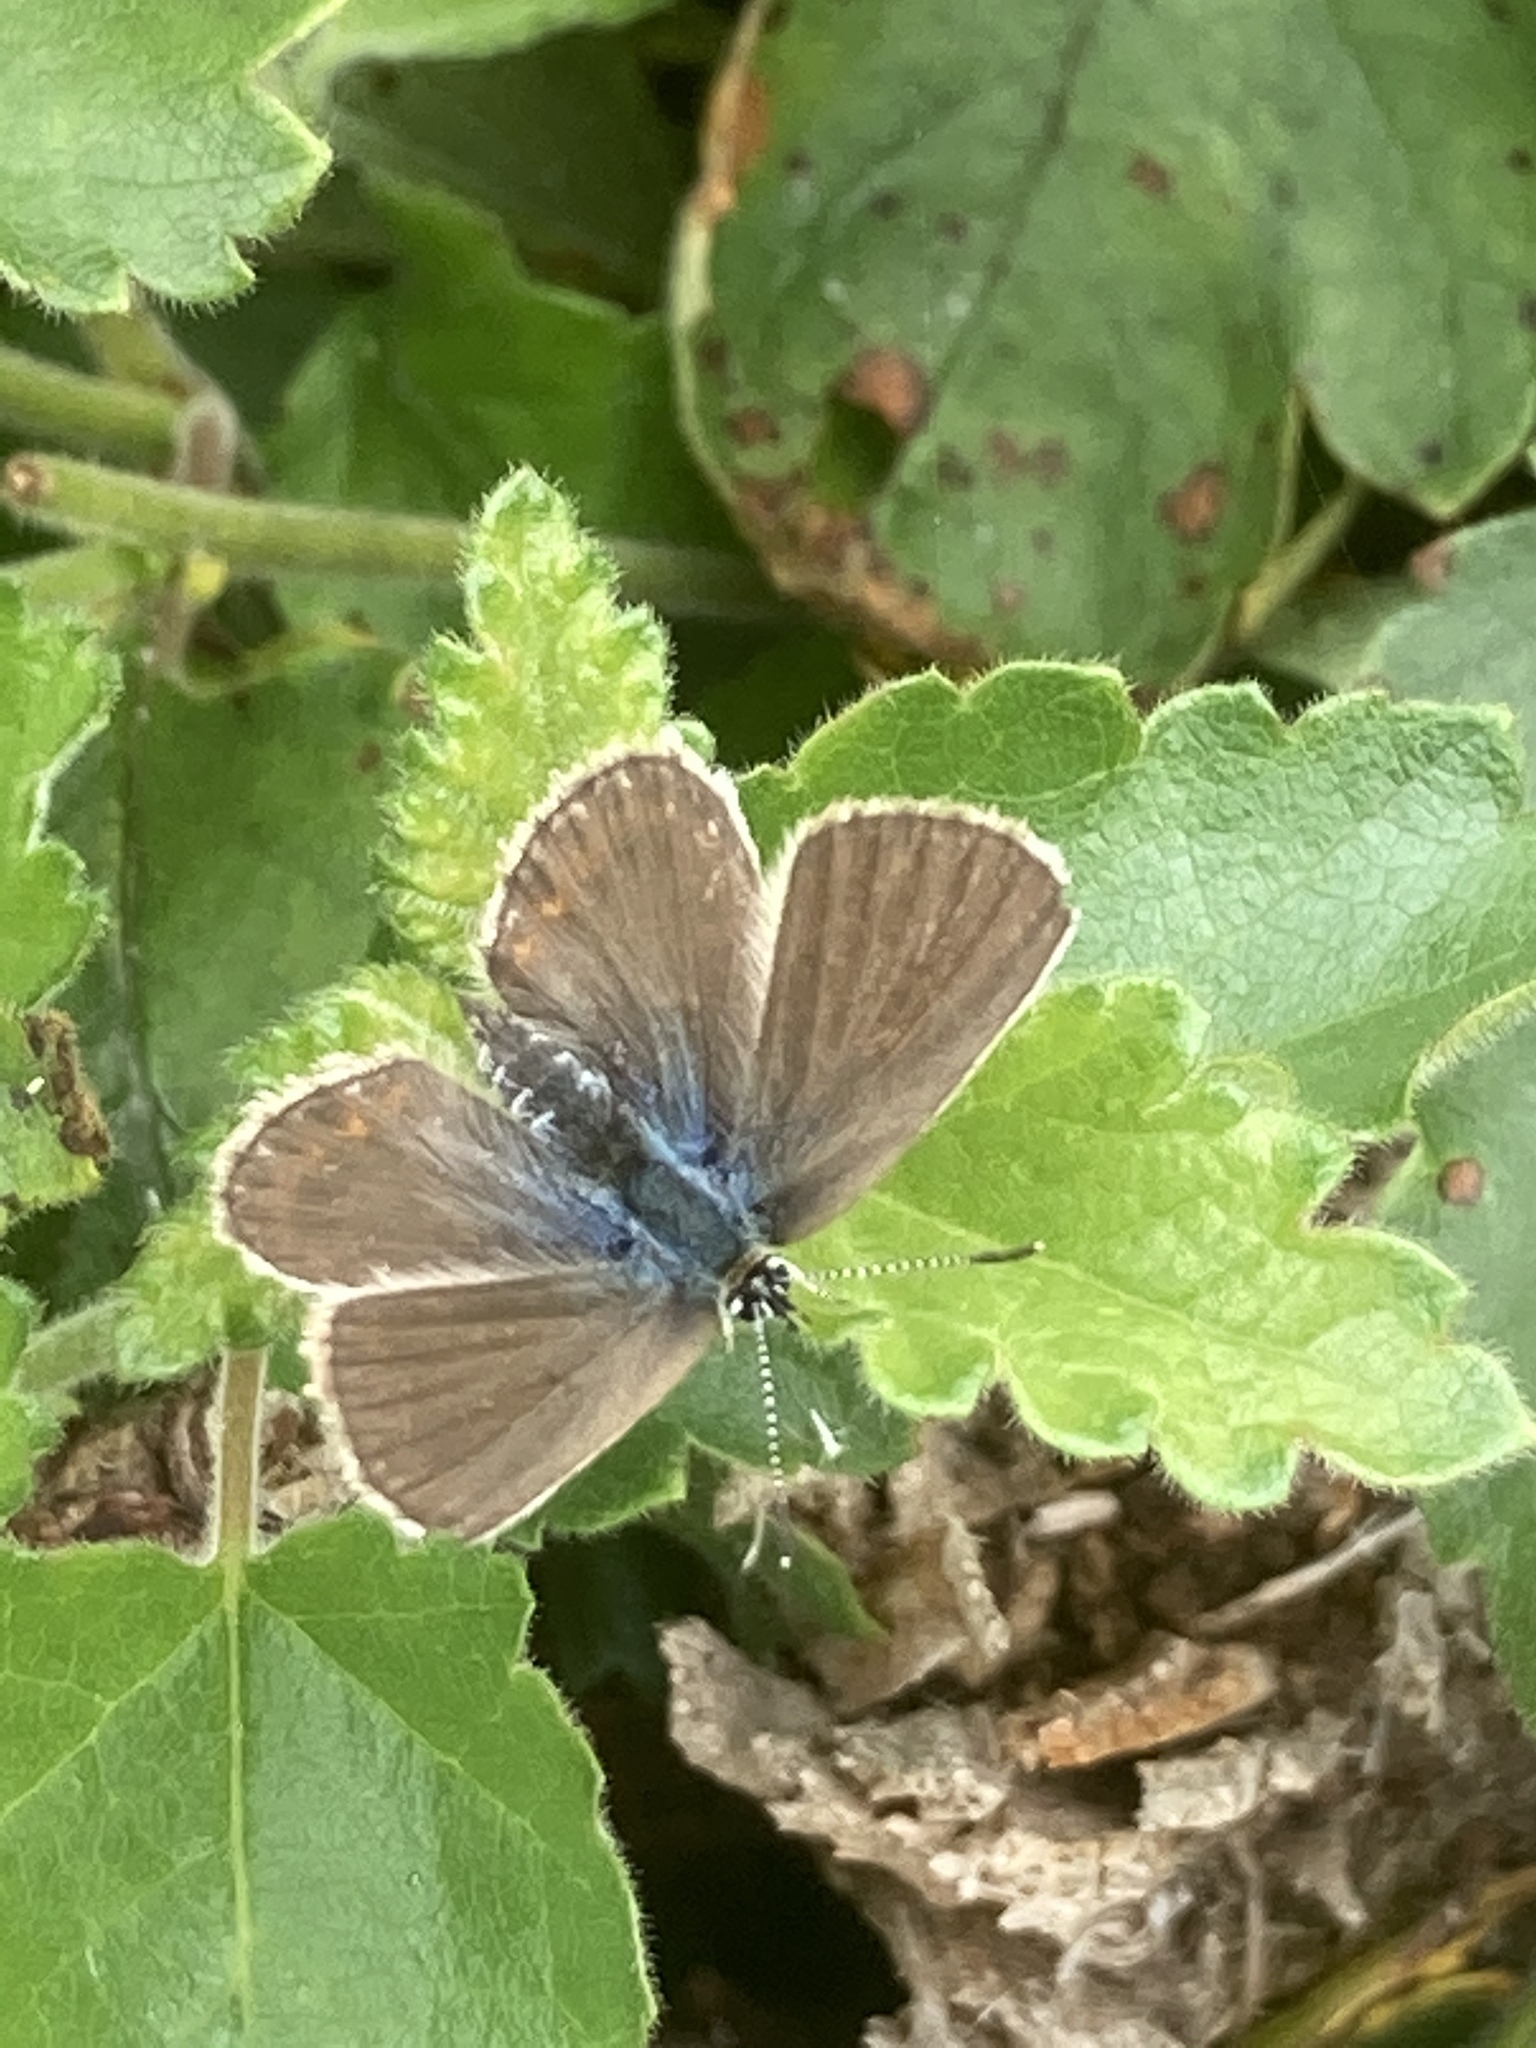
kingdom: Animalia
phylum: Arthropoda
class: Insecta
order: Lepidoptera
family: Lycaenidae
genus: Polyommatus
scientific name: Polyommatus icarus
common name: Common blue
